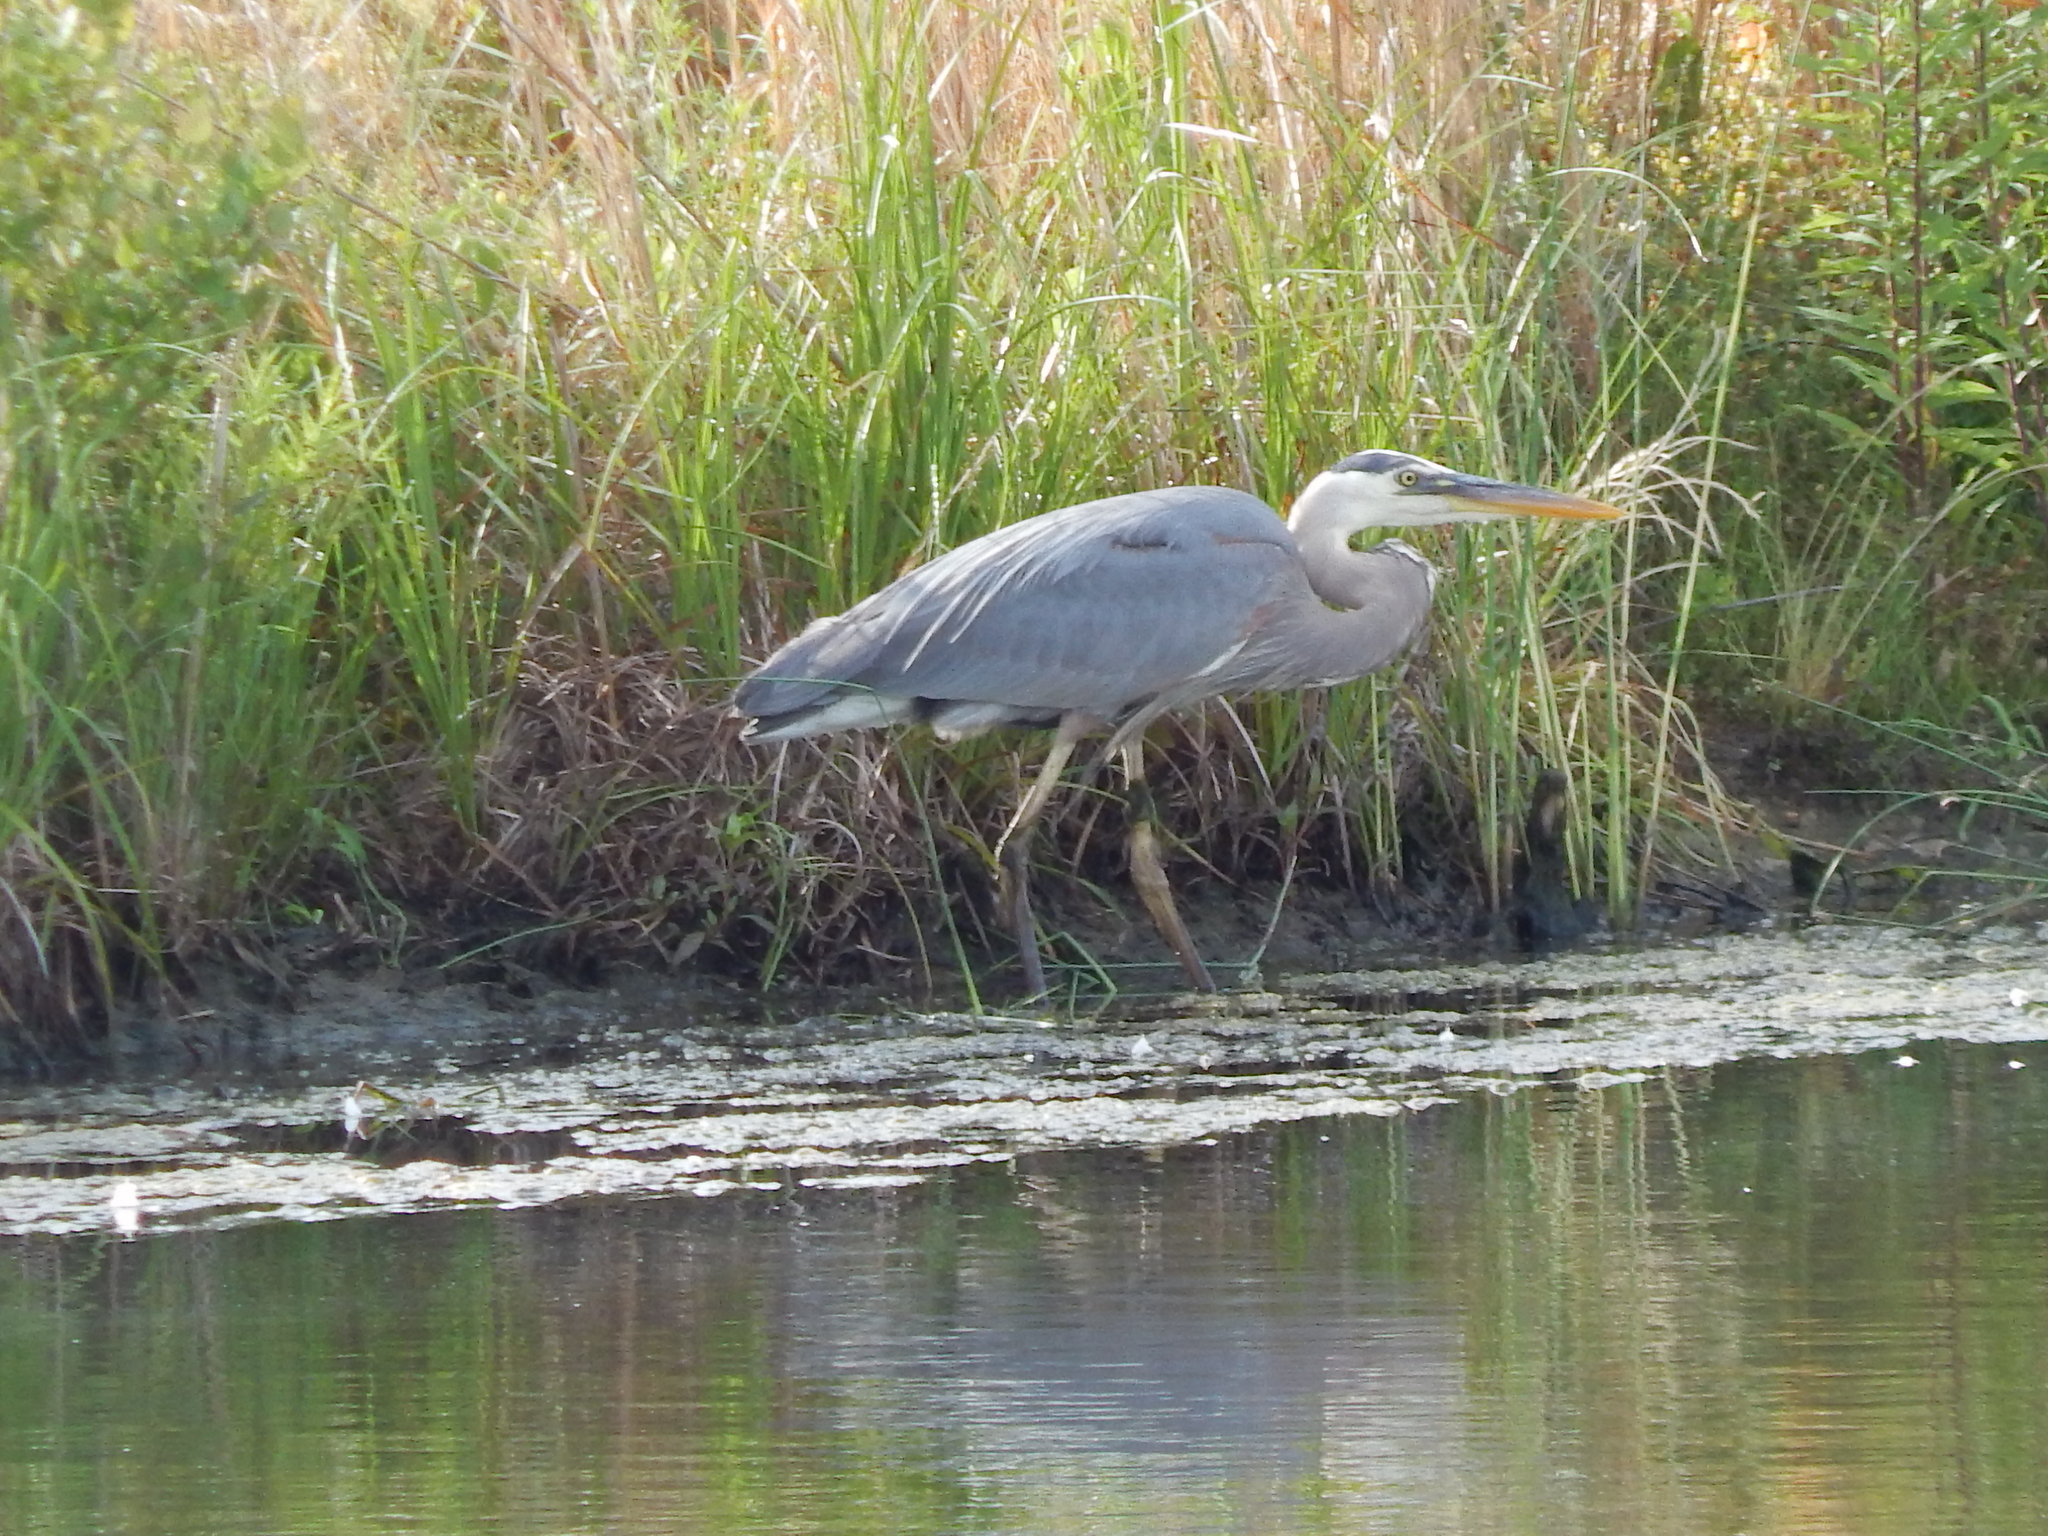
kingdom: Animalia
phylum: Chordata
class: Aves
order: Pelecaniformes
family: Ardeidae
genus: Ardea
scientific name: Ardea herodias
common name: Great blue heron
